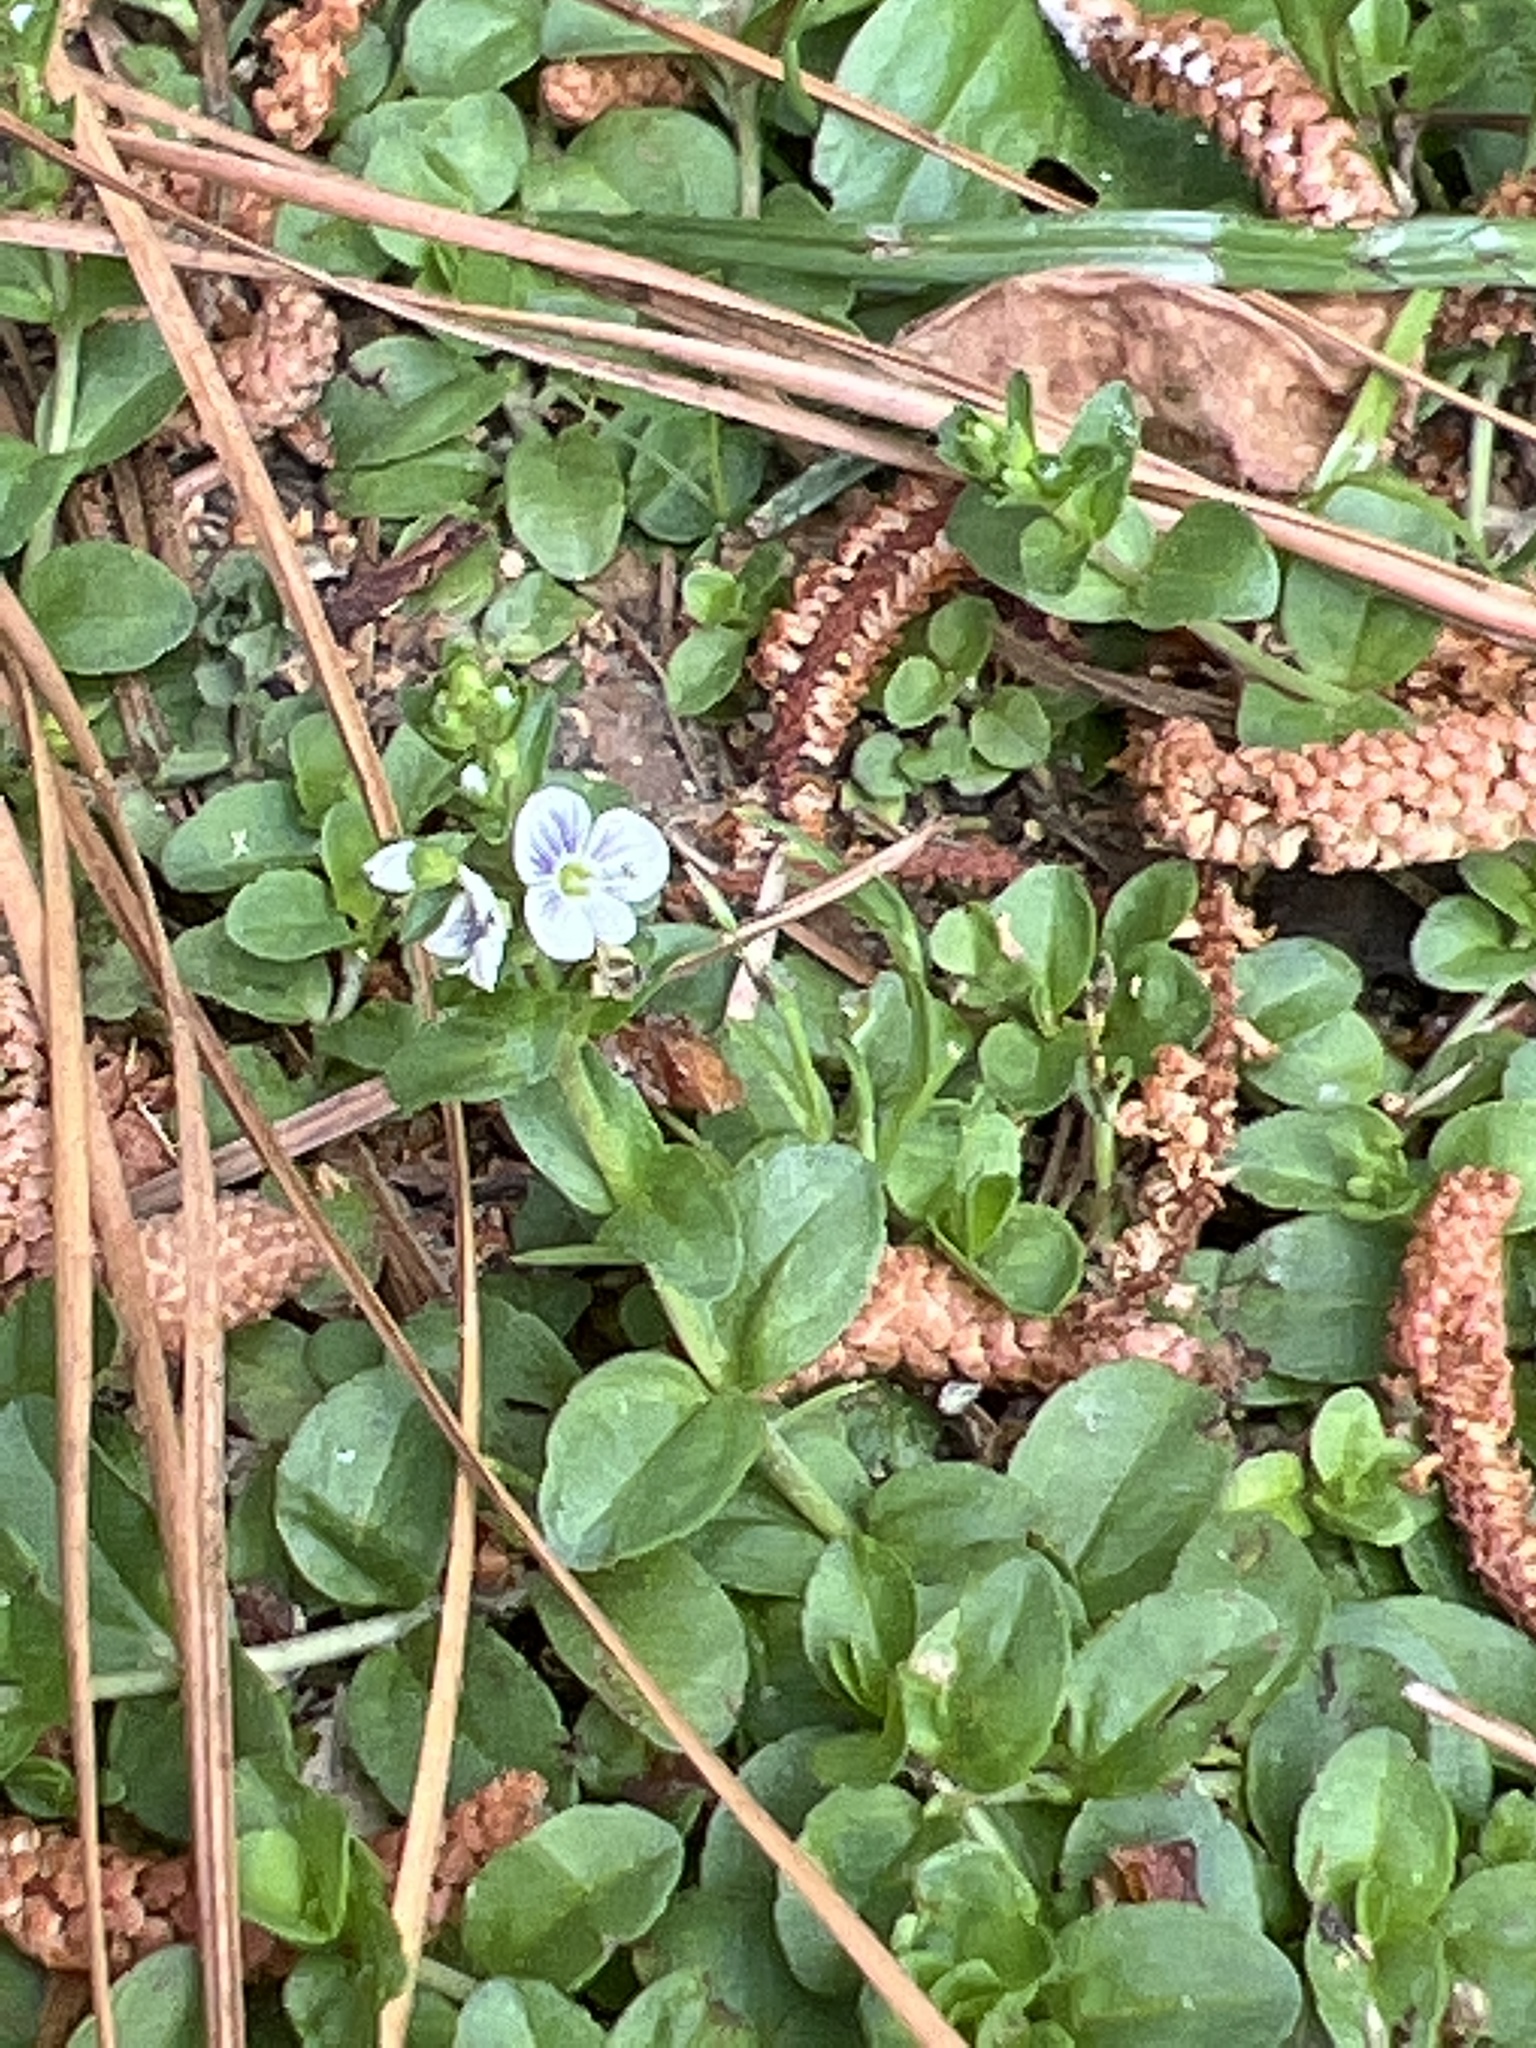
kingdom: Plantae
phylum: Tracheophyta
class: Magnoliopsida
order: Lamiales
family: Plantaginaceae
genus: Veronica
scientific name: Veronica serpyllifolia
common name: Thyme-leaved speedwell
